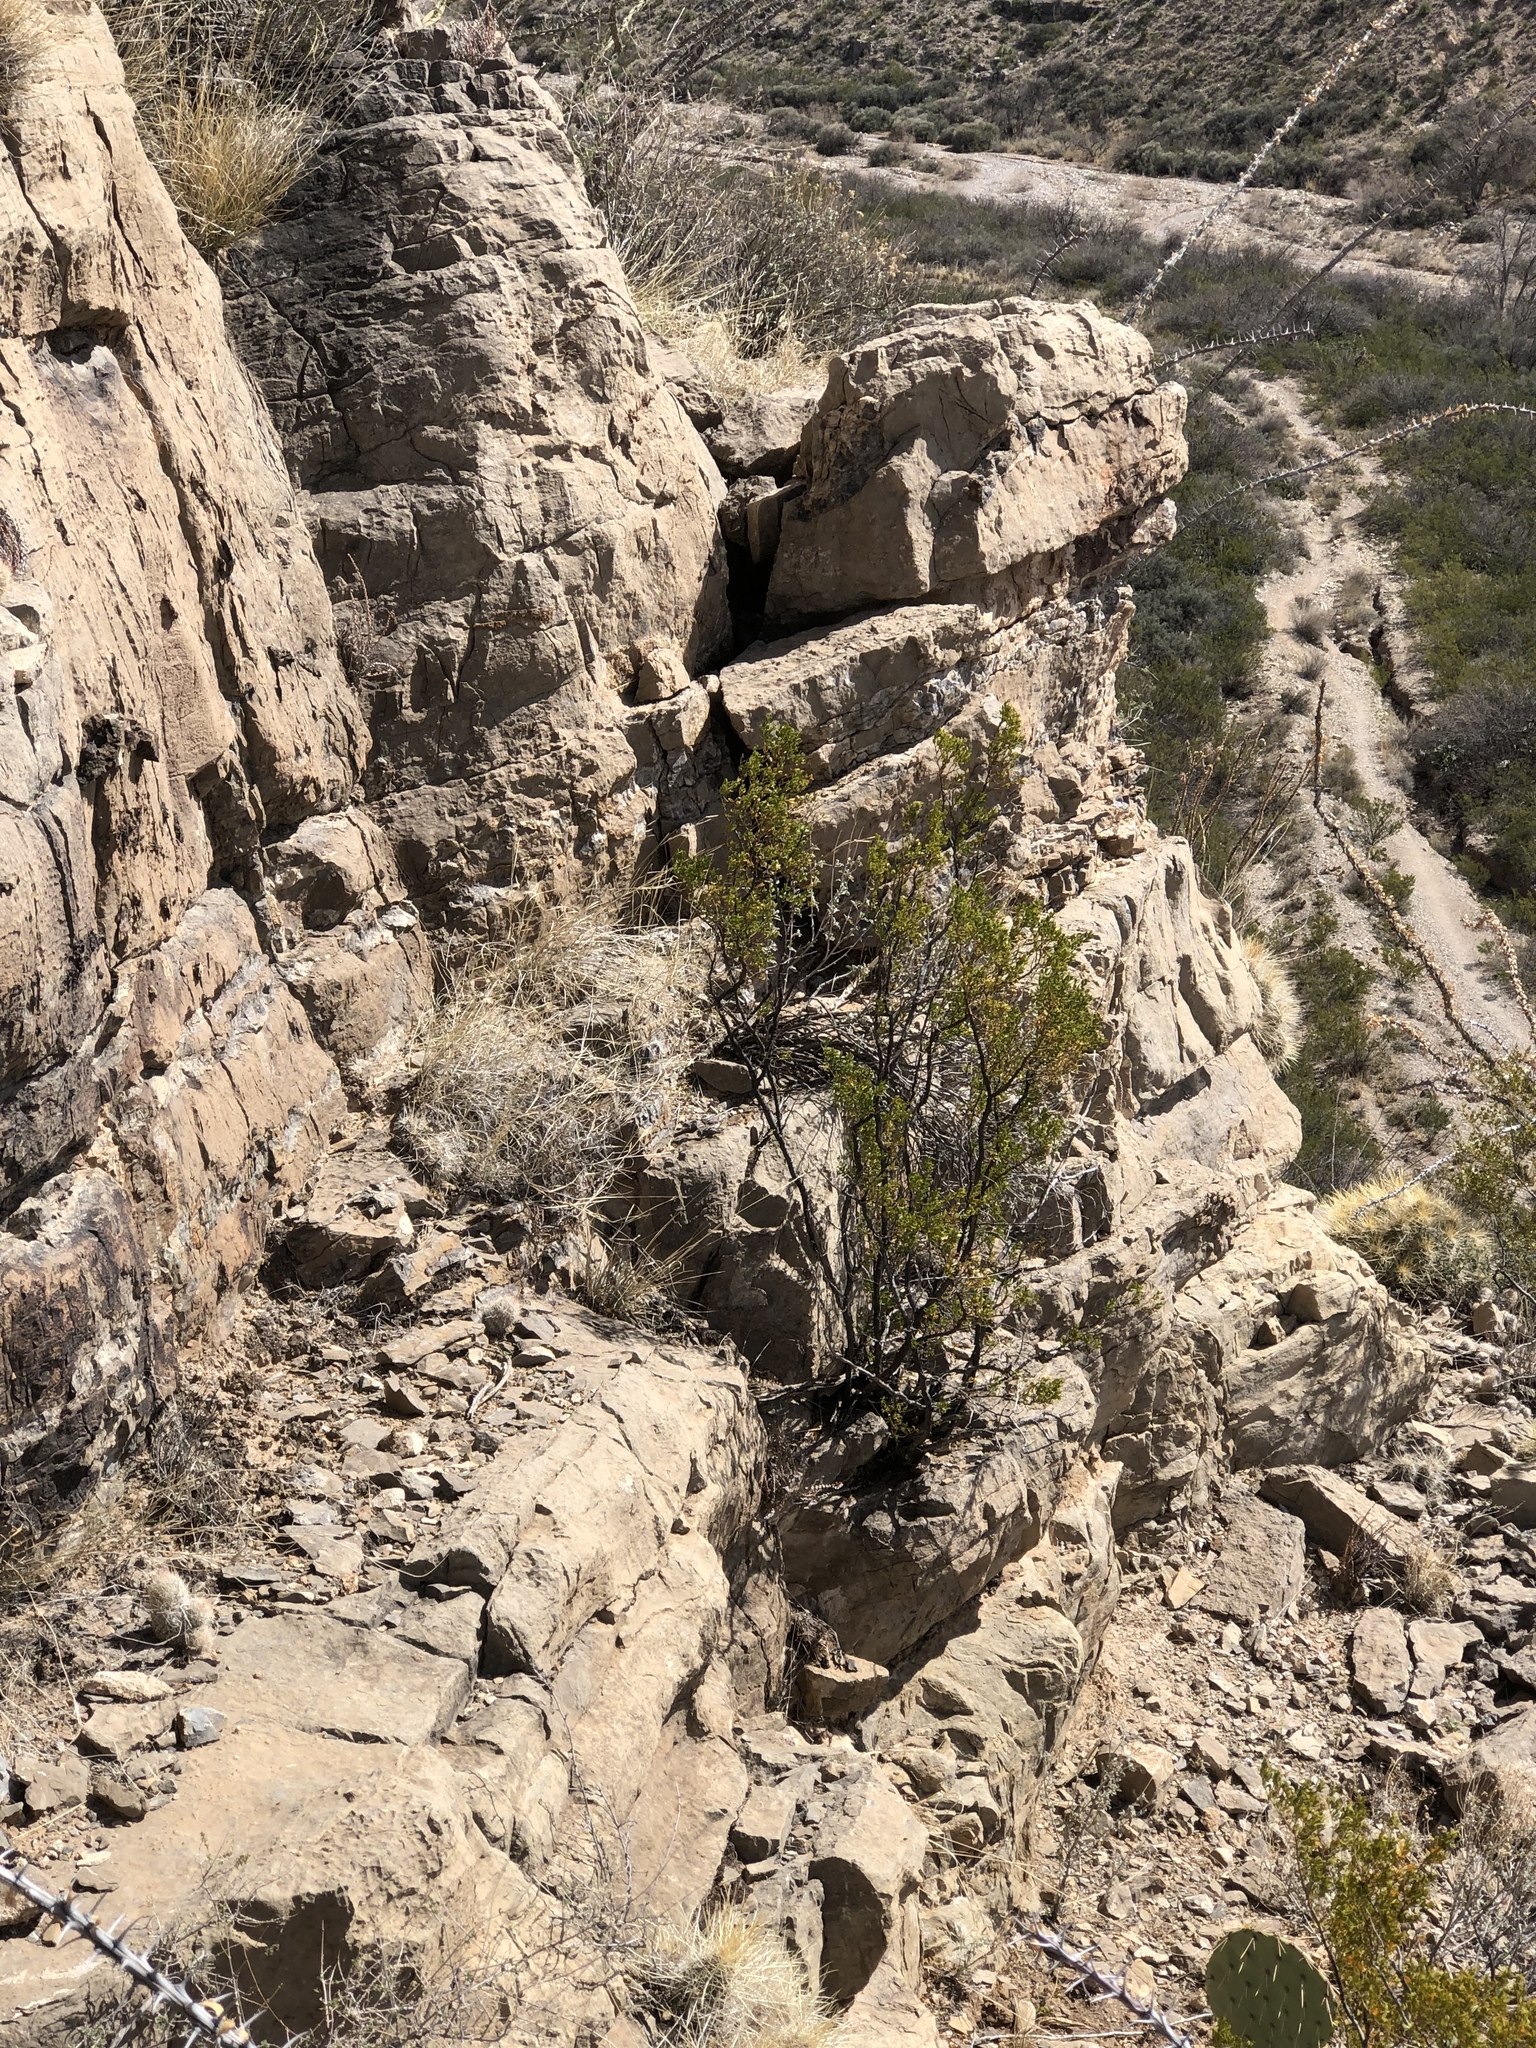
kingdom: Plantae
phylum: Tracheophyta
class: Magnoliopsida
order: Zygophyllales
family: Zygophyllaceae
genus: Larrea
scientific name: Larrea tridentata
